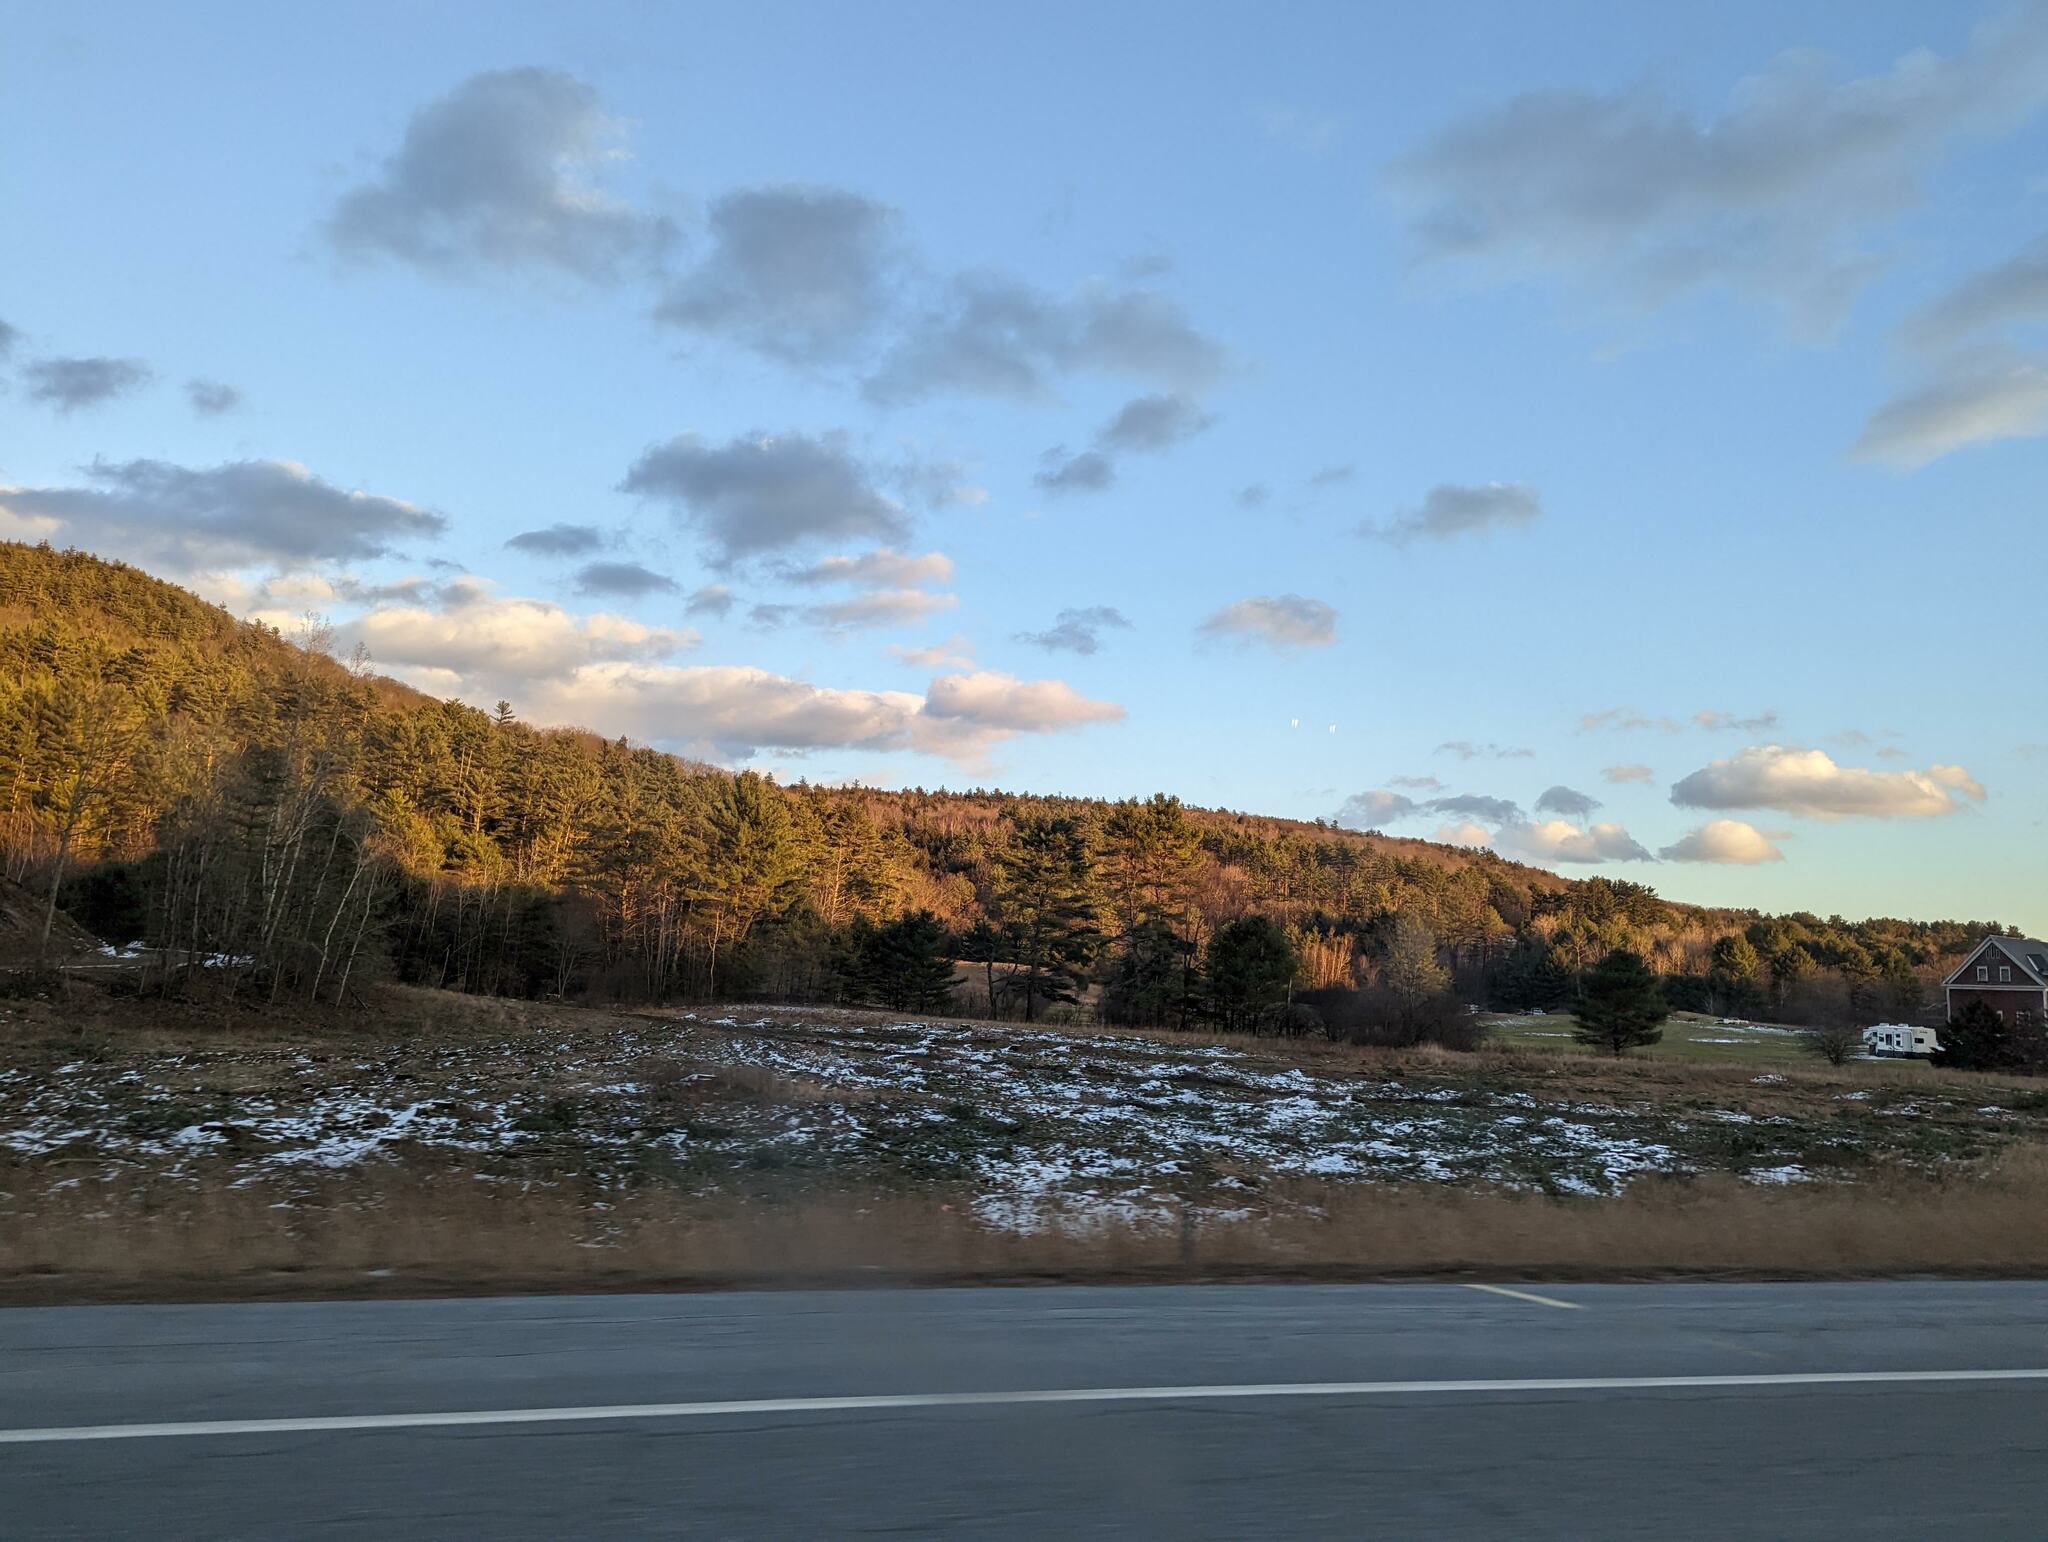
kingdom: Plantae
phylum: Tracheophyta
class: Pinopsida
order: Pinales
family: Pinaceae
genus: Pinus
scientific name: Pinus strobus
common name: Weymouth pine
